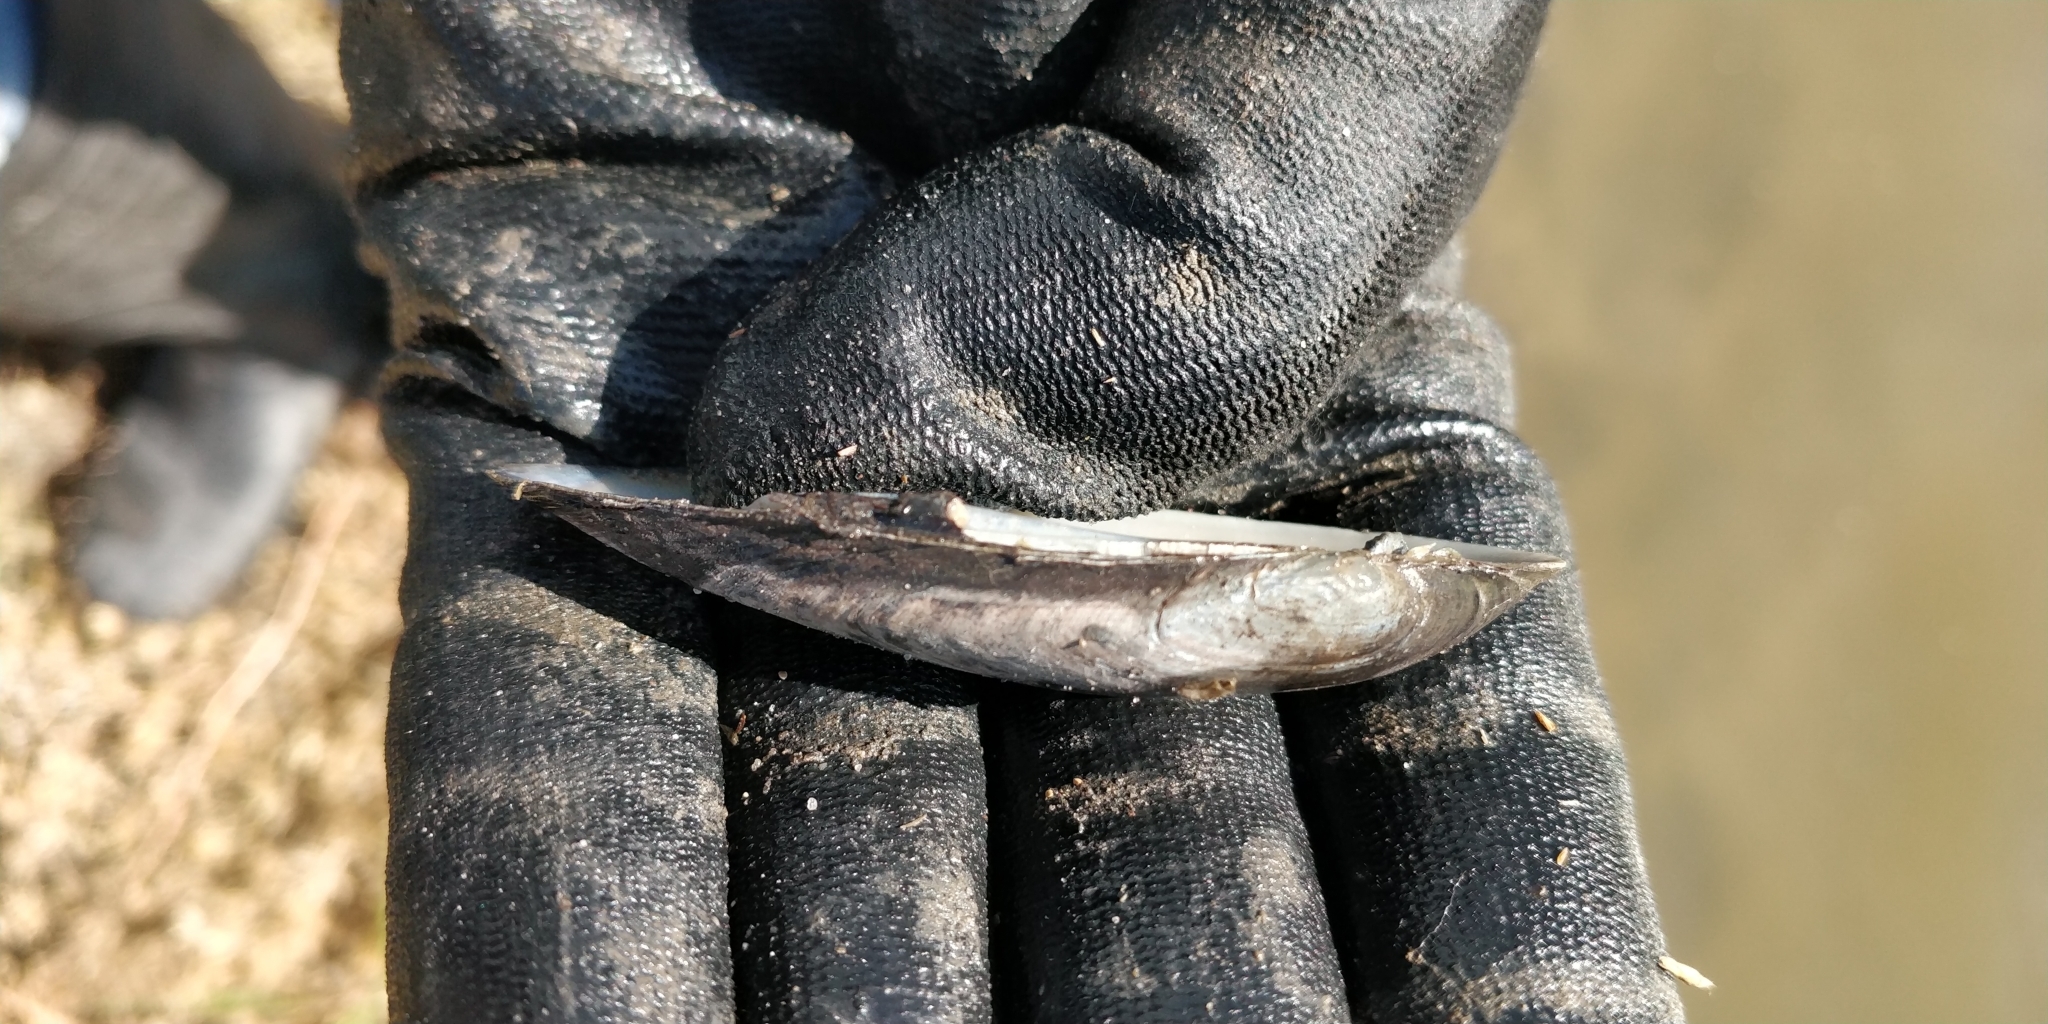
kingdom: Animalia
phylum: Mollusca
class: Bivalvia
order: Unionida
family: Unionidae
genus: Lampsilis
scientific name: Lampsilis teres
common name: Yellow sandshell
